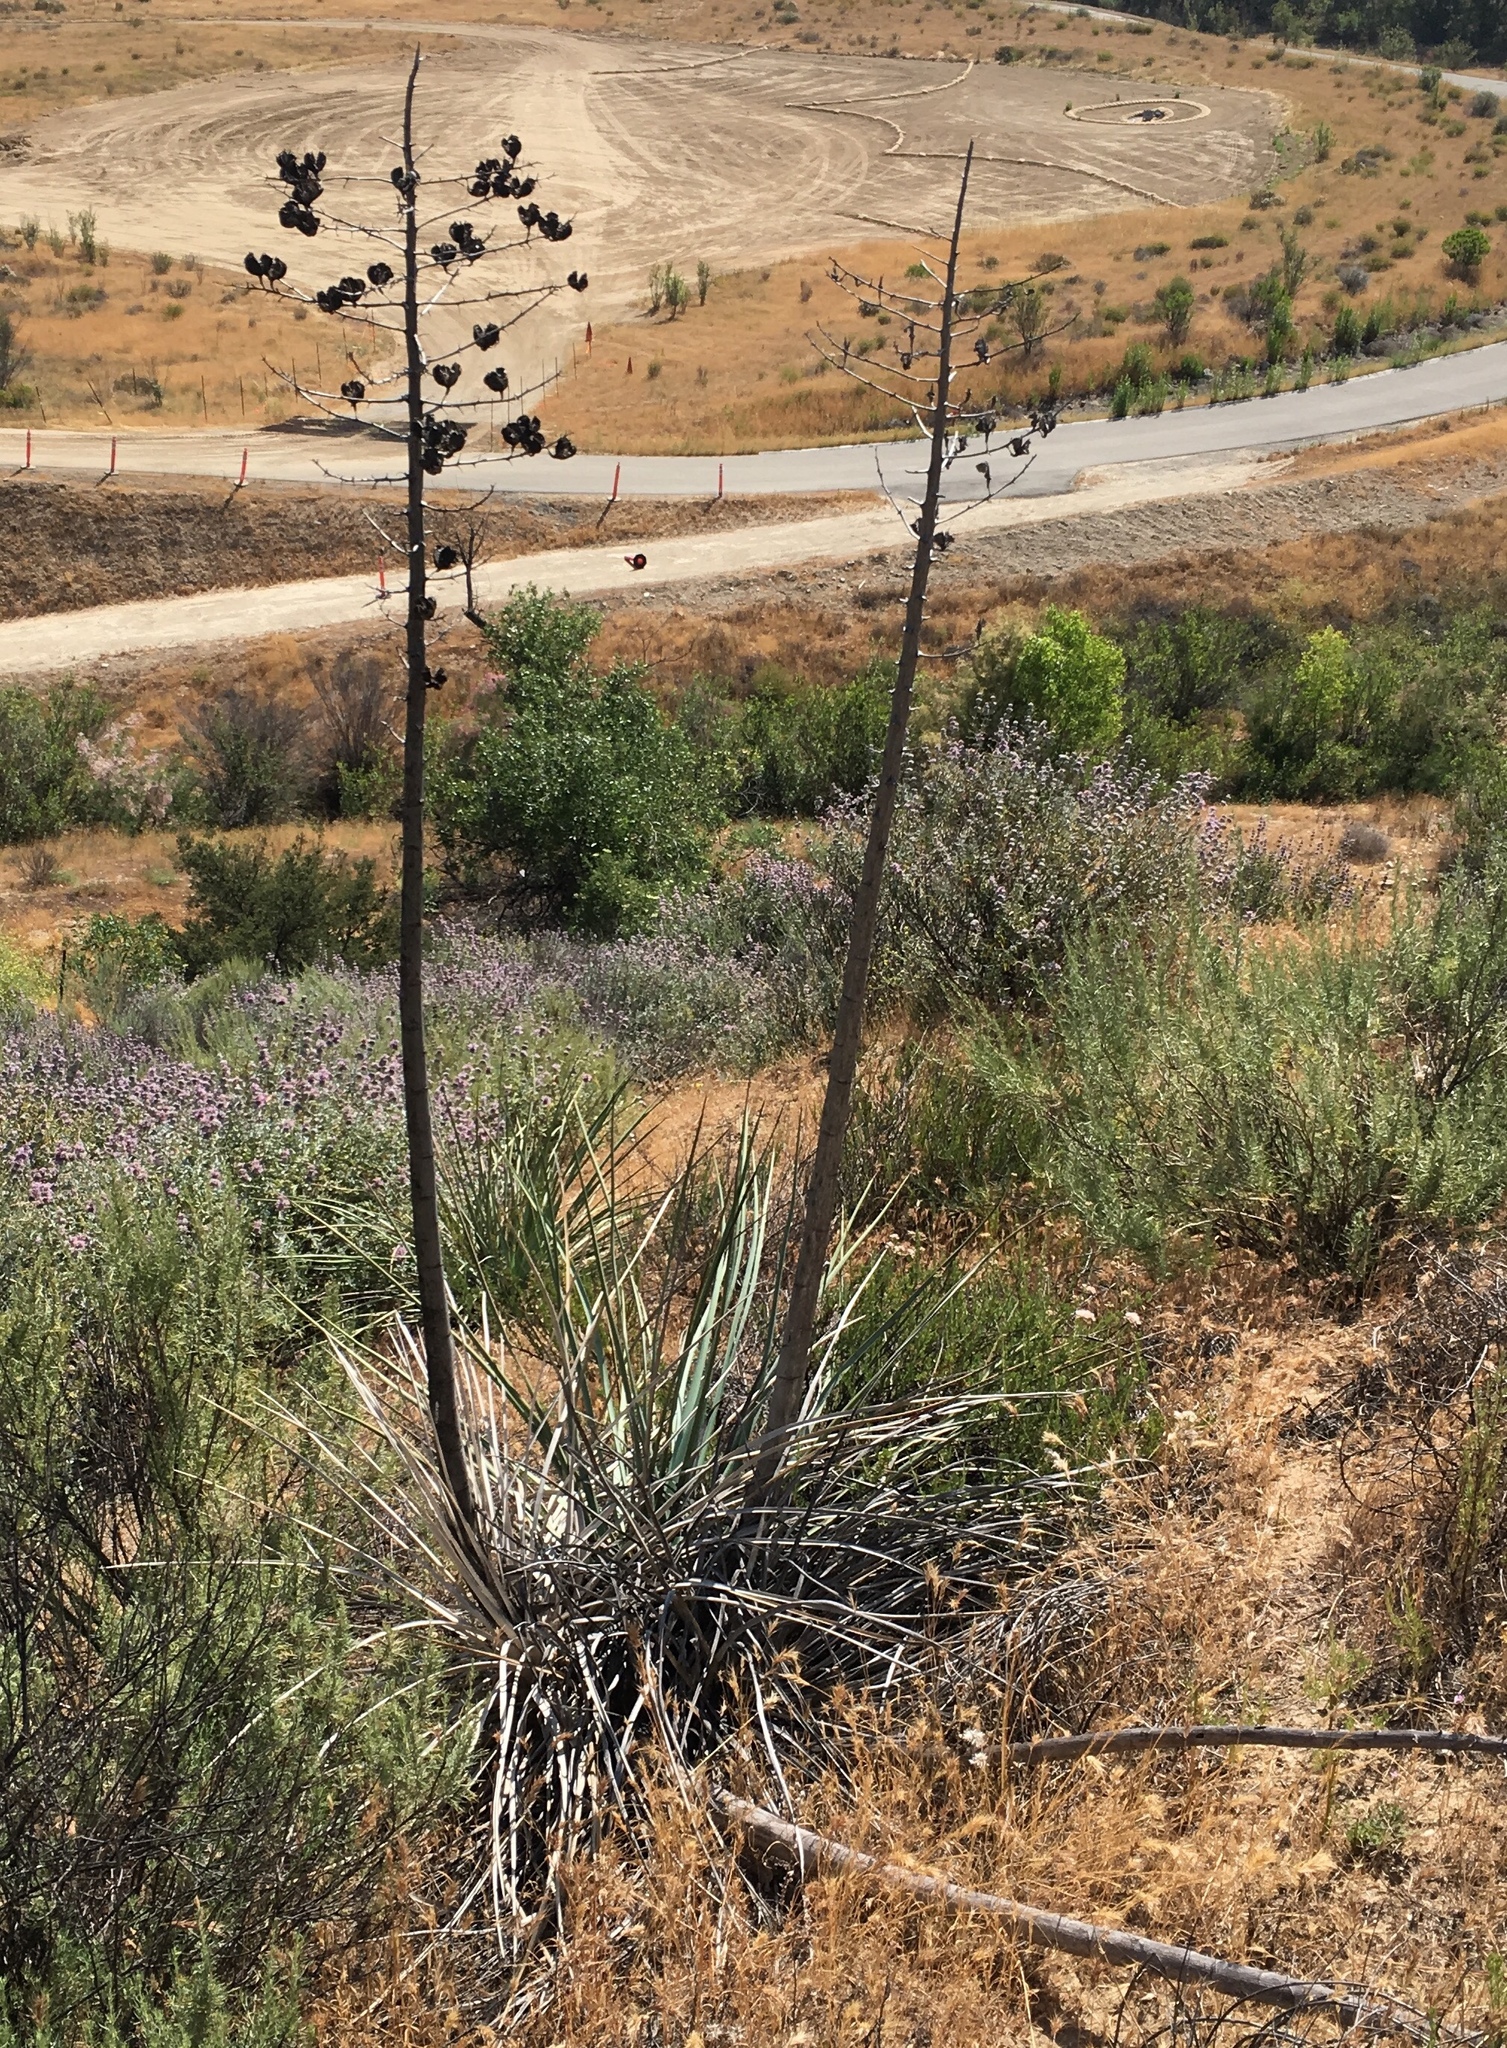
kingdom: Plantae
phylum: Tracheophyta
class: Liliopsida
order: Asparagales
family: Asparagaceae
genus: Hesperoyucca
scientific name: Hesperoyucca whipplei
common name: Our lord's-candle
